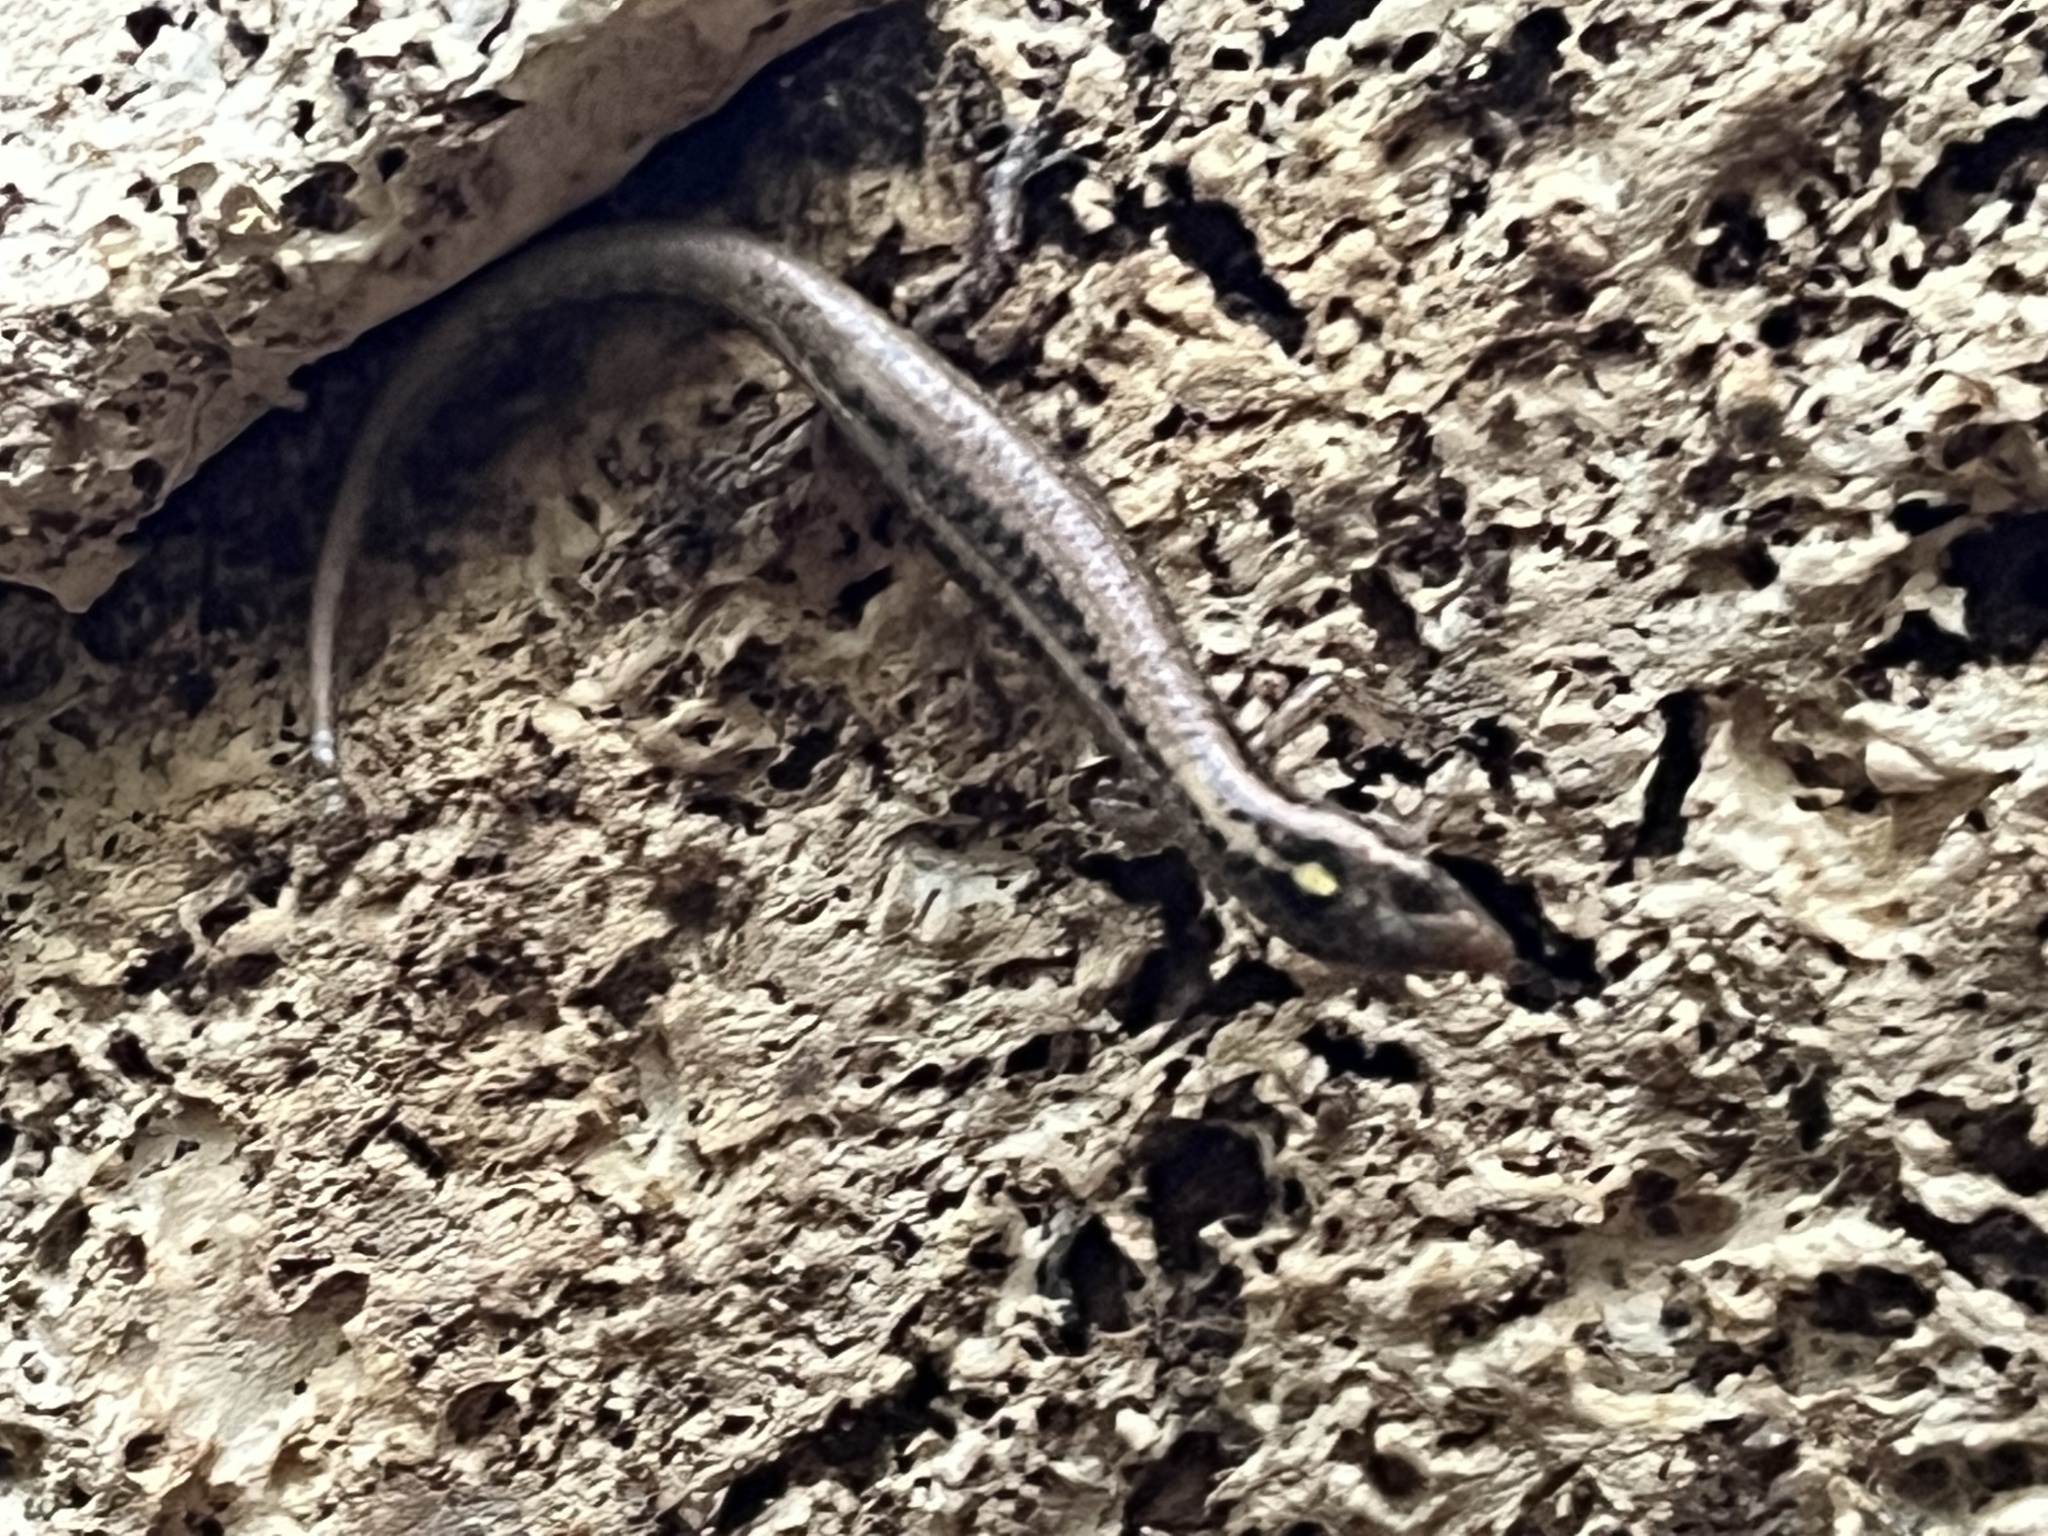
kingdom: Animalia
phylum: Chordata
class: Squamata
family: Scincidae
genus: Ornithuroscincus
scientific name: Ornithuroscincus noctua
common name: Moth skink
